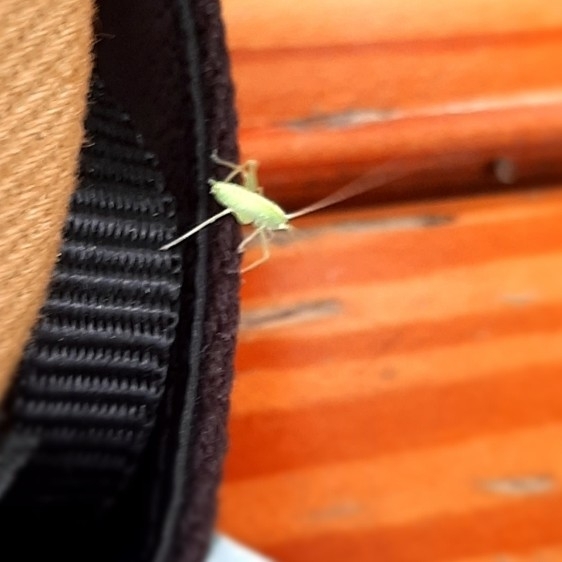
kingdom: Animalia
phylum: Arthropoda
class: Insecta
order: Orthoptera
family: Tettigoniidae
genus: Meconema
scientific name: Meconema
